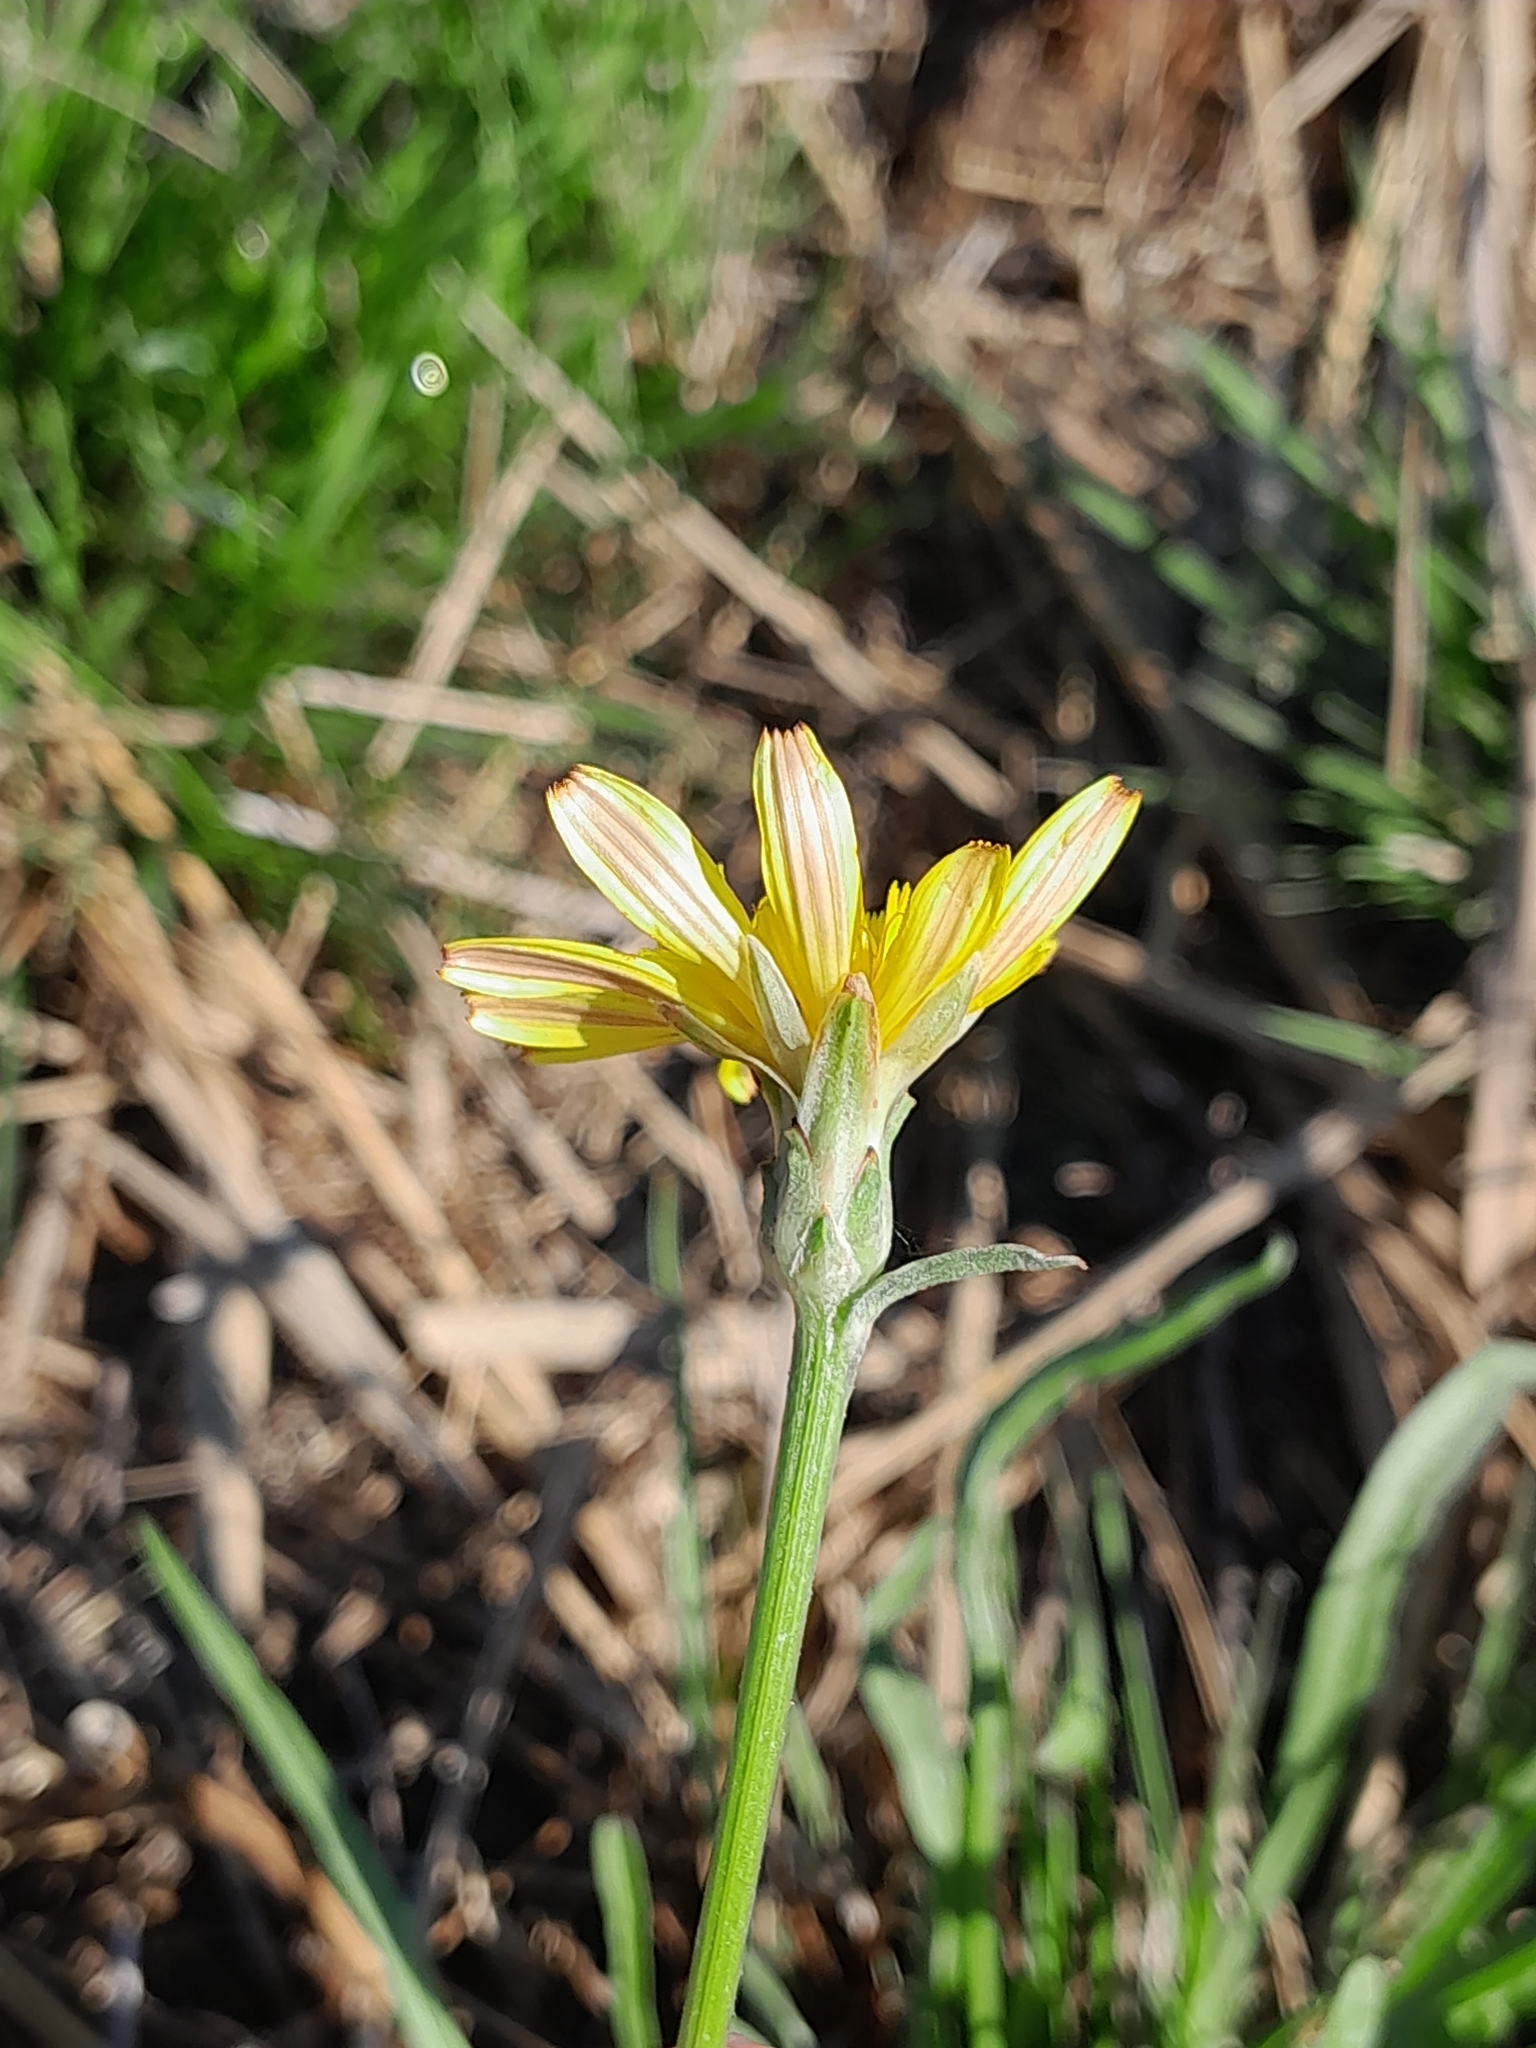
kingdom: Plantae
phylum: Tracheophyta
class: Magnoliopsida
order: Asterales
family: Asteraceae
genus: Scorzonera
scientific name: Scorzonera cana
